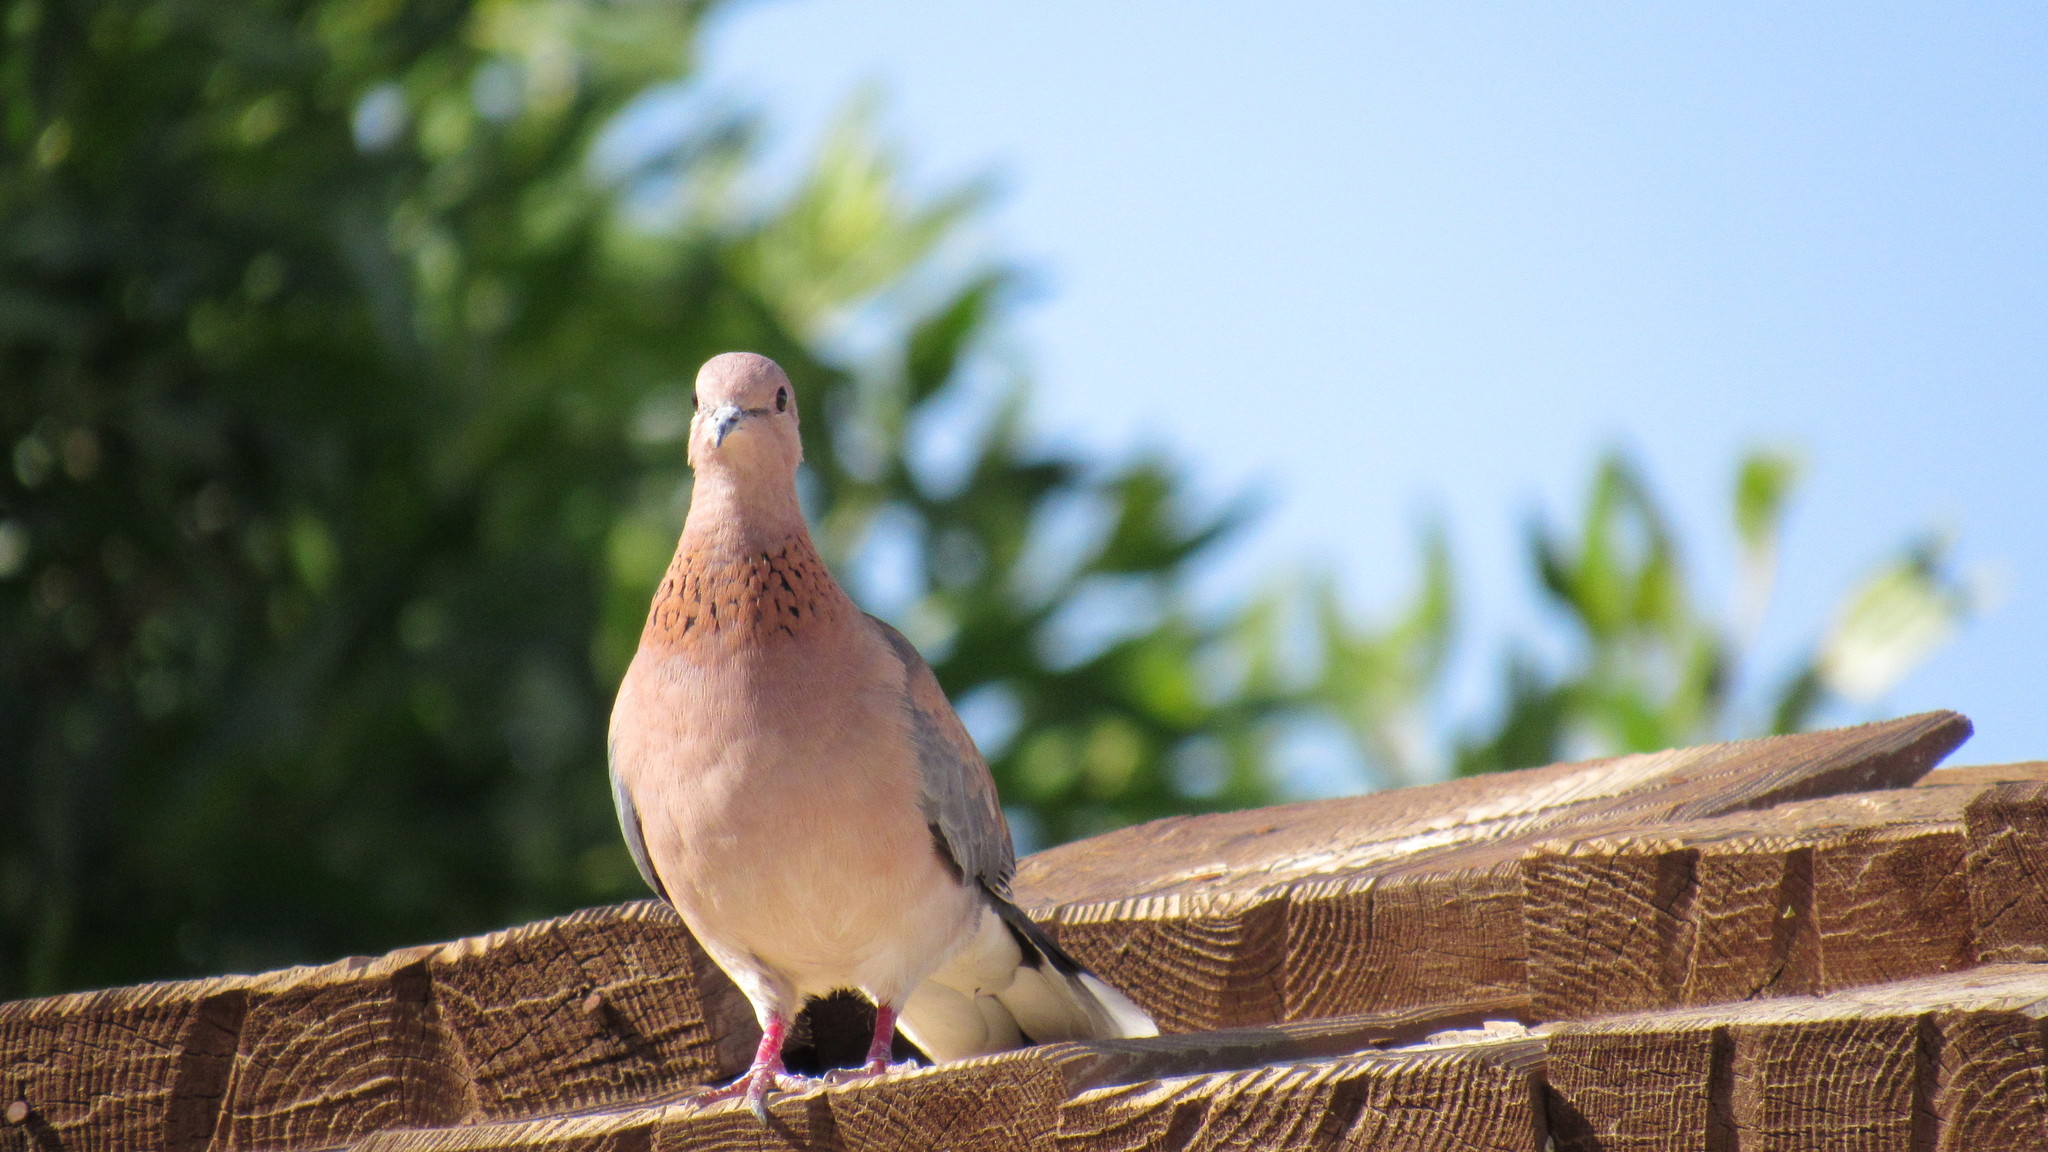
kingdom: Animalia
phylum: Chordata
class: Aves
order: Columbiformes
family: Columbidae
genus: Spilopelia
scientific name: Spilopelia senegalensis
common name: Laughing dove
